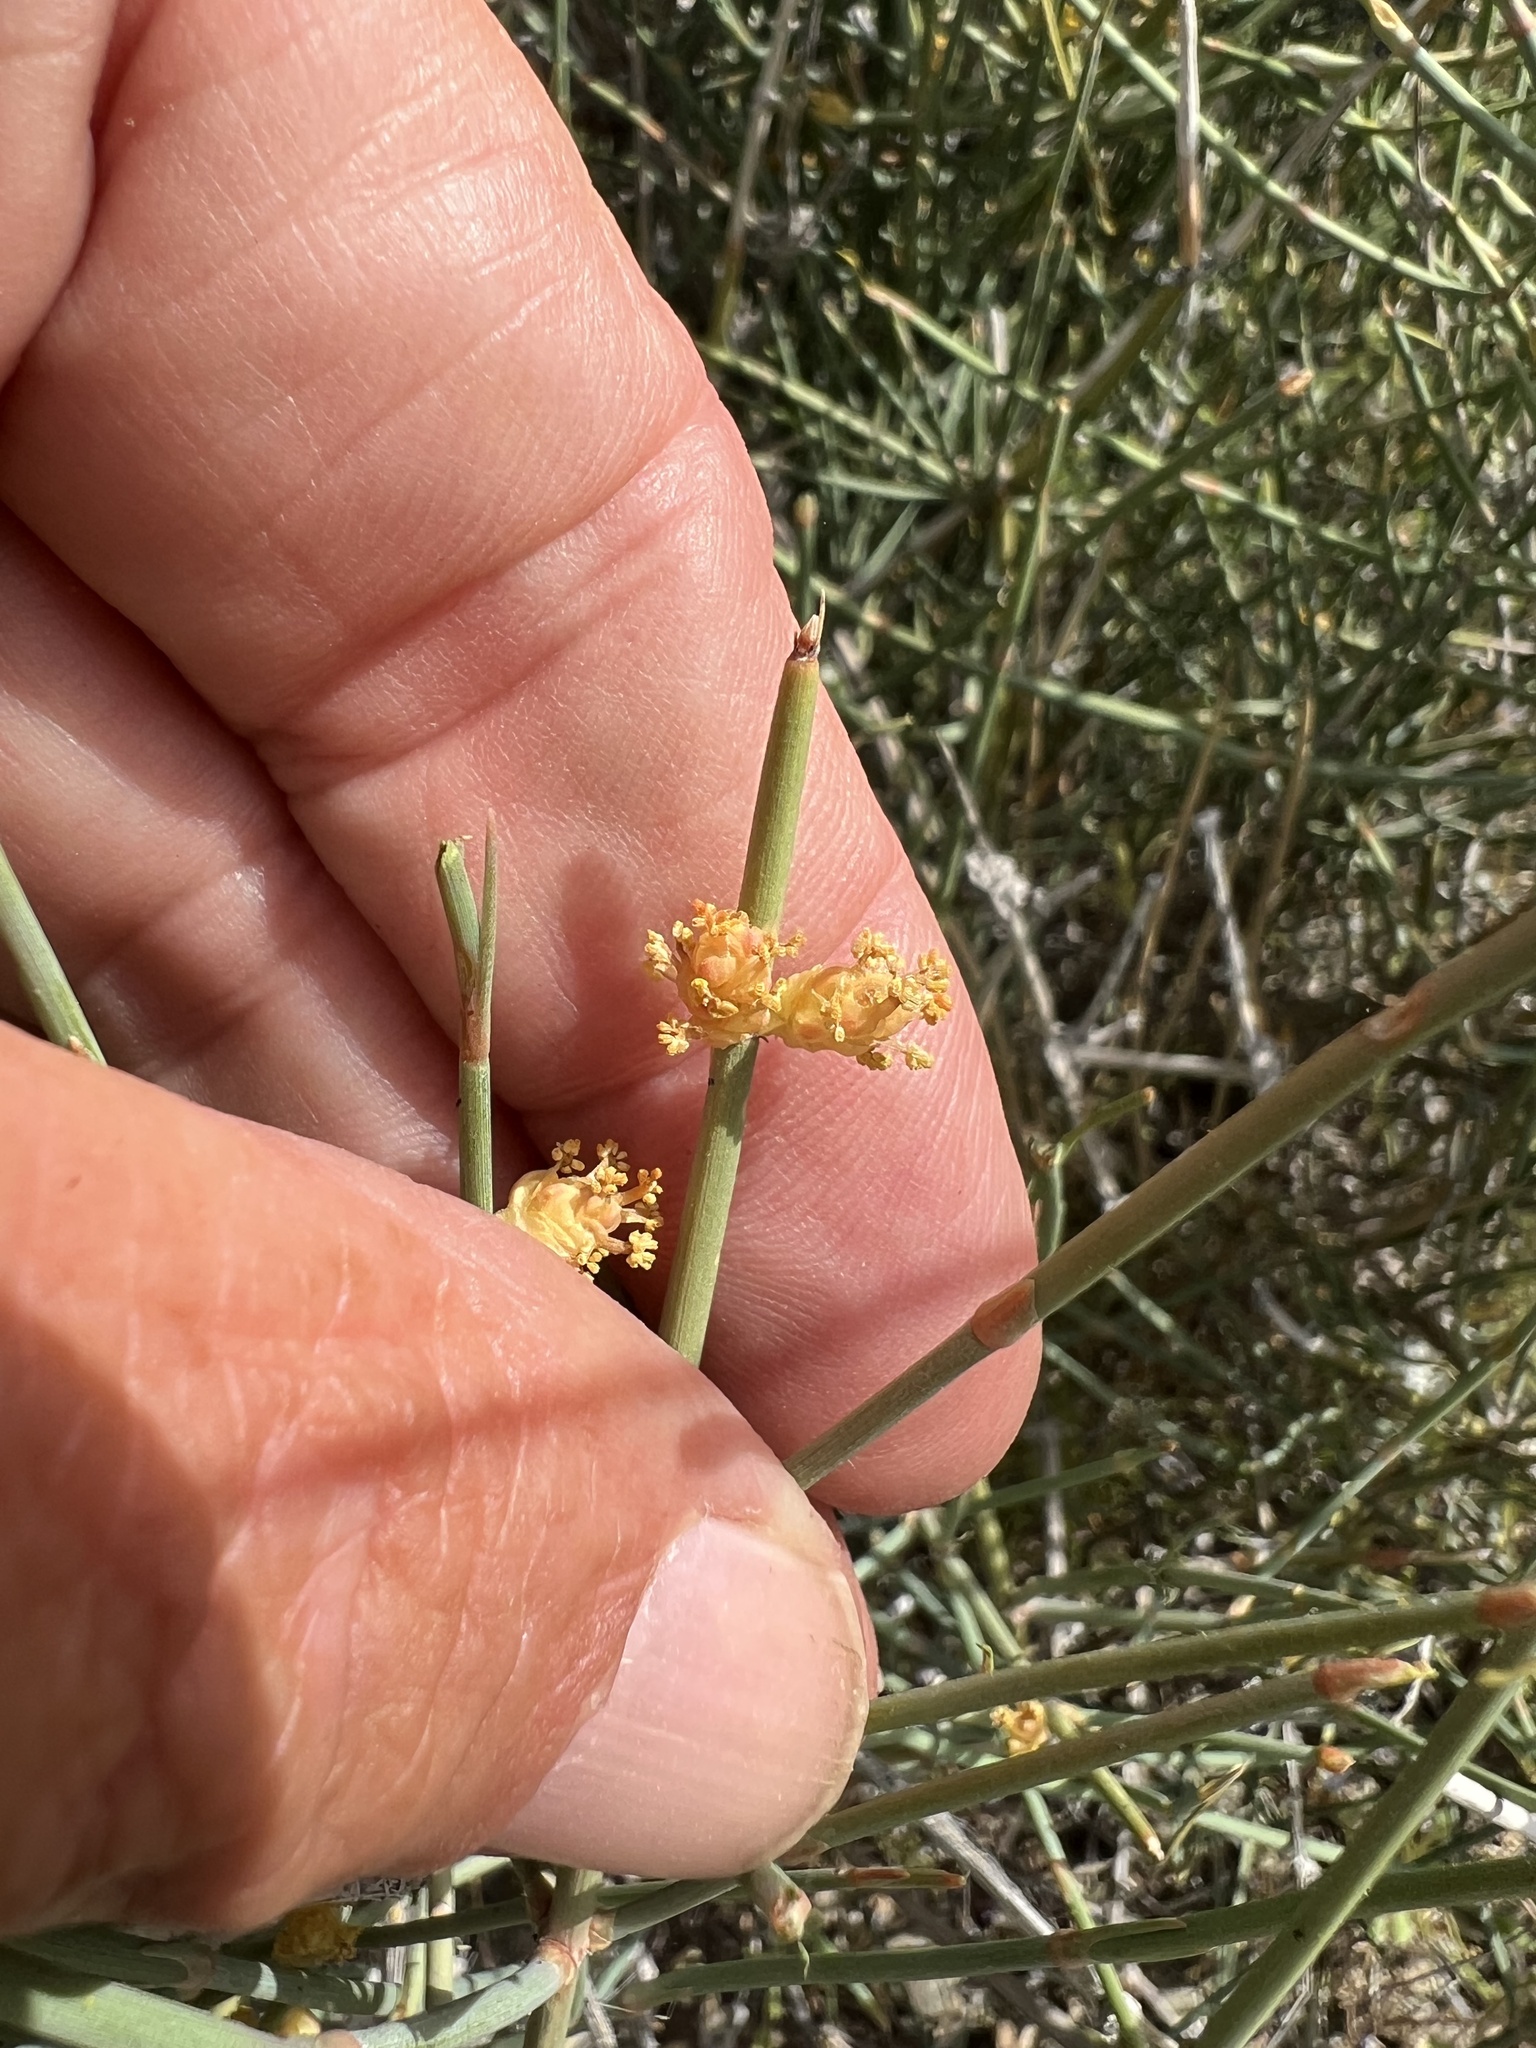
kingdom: Plantae
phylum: Tracheophyta
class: Gnetopsida
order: Ephedrales
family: Ephedraceae
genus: Ephedra
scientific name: Ephedra nevadensis
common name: Gray ephedra
